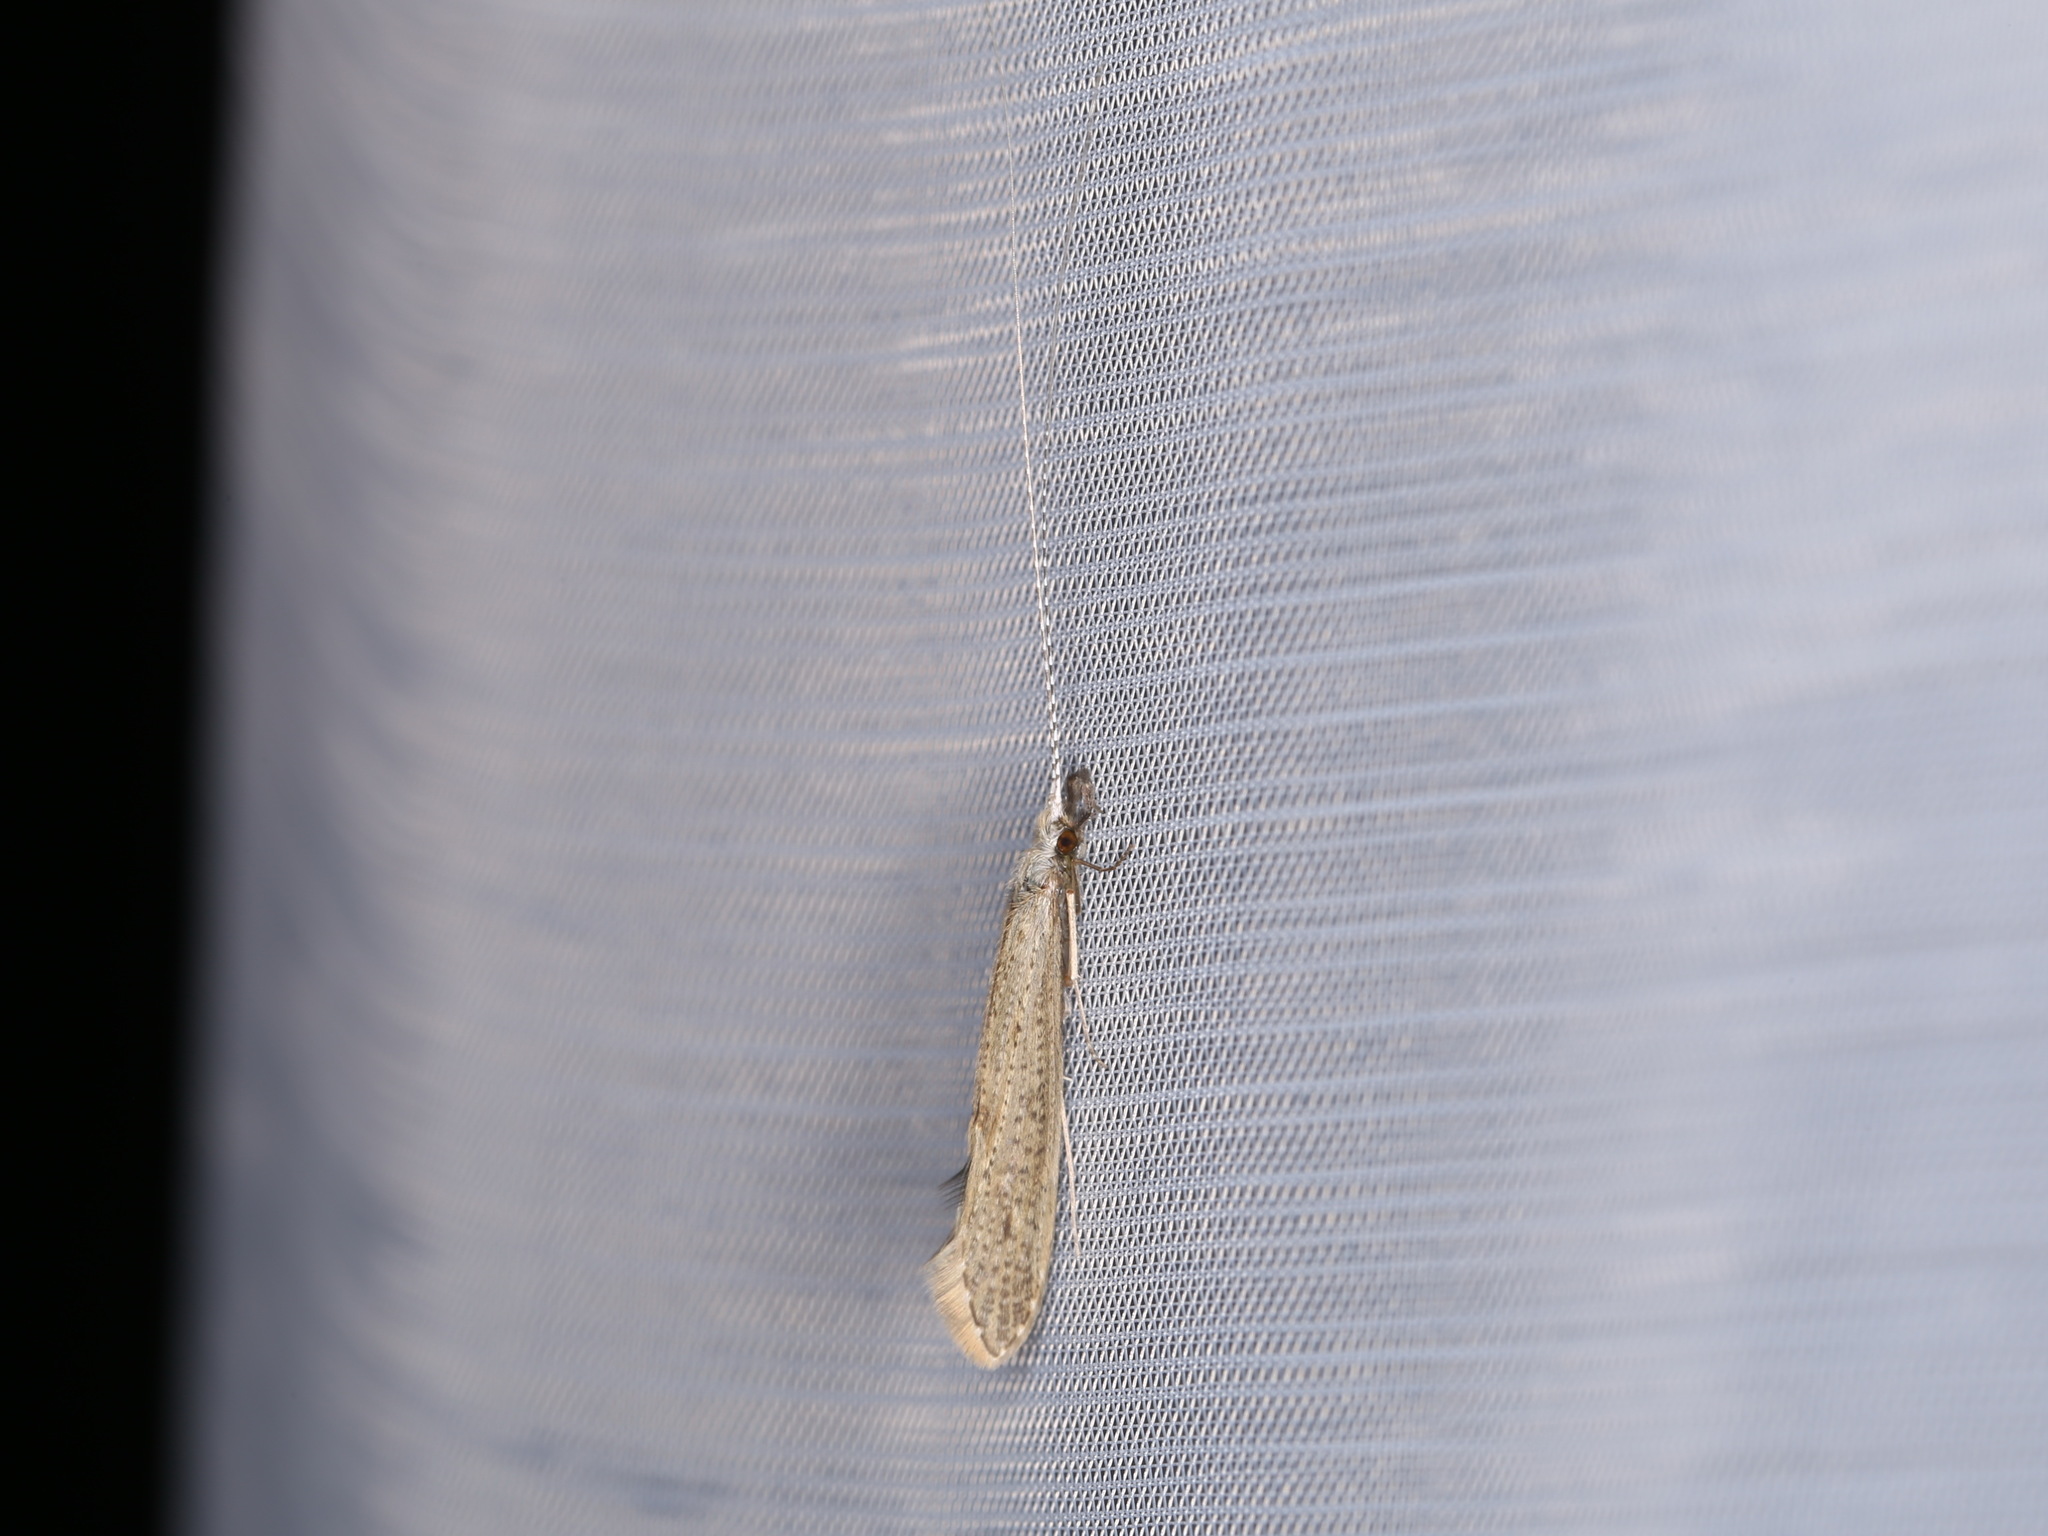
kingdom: Animalia
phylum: Arthropoda
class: Insecta
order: Trichoptera
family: Leptoceridae
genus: Leptocerus
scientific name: Leptocerus tineiformis
